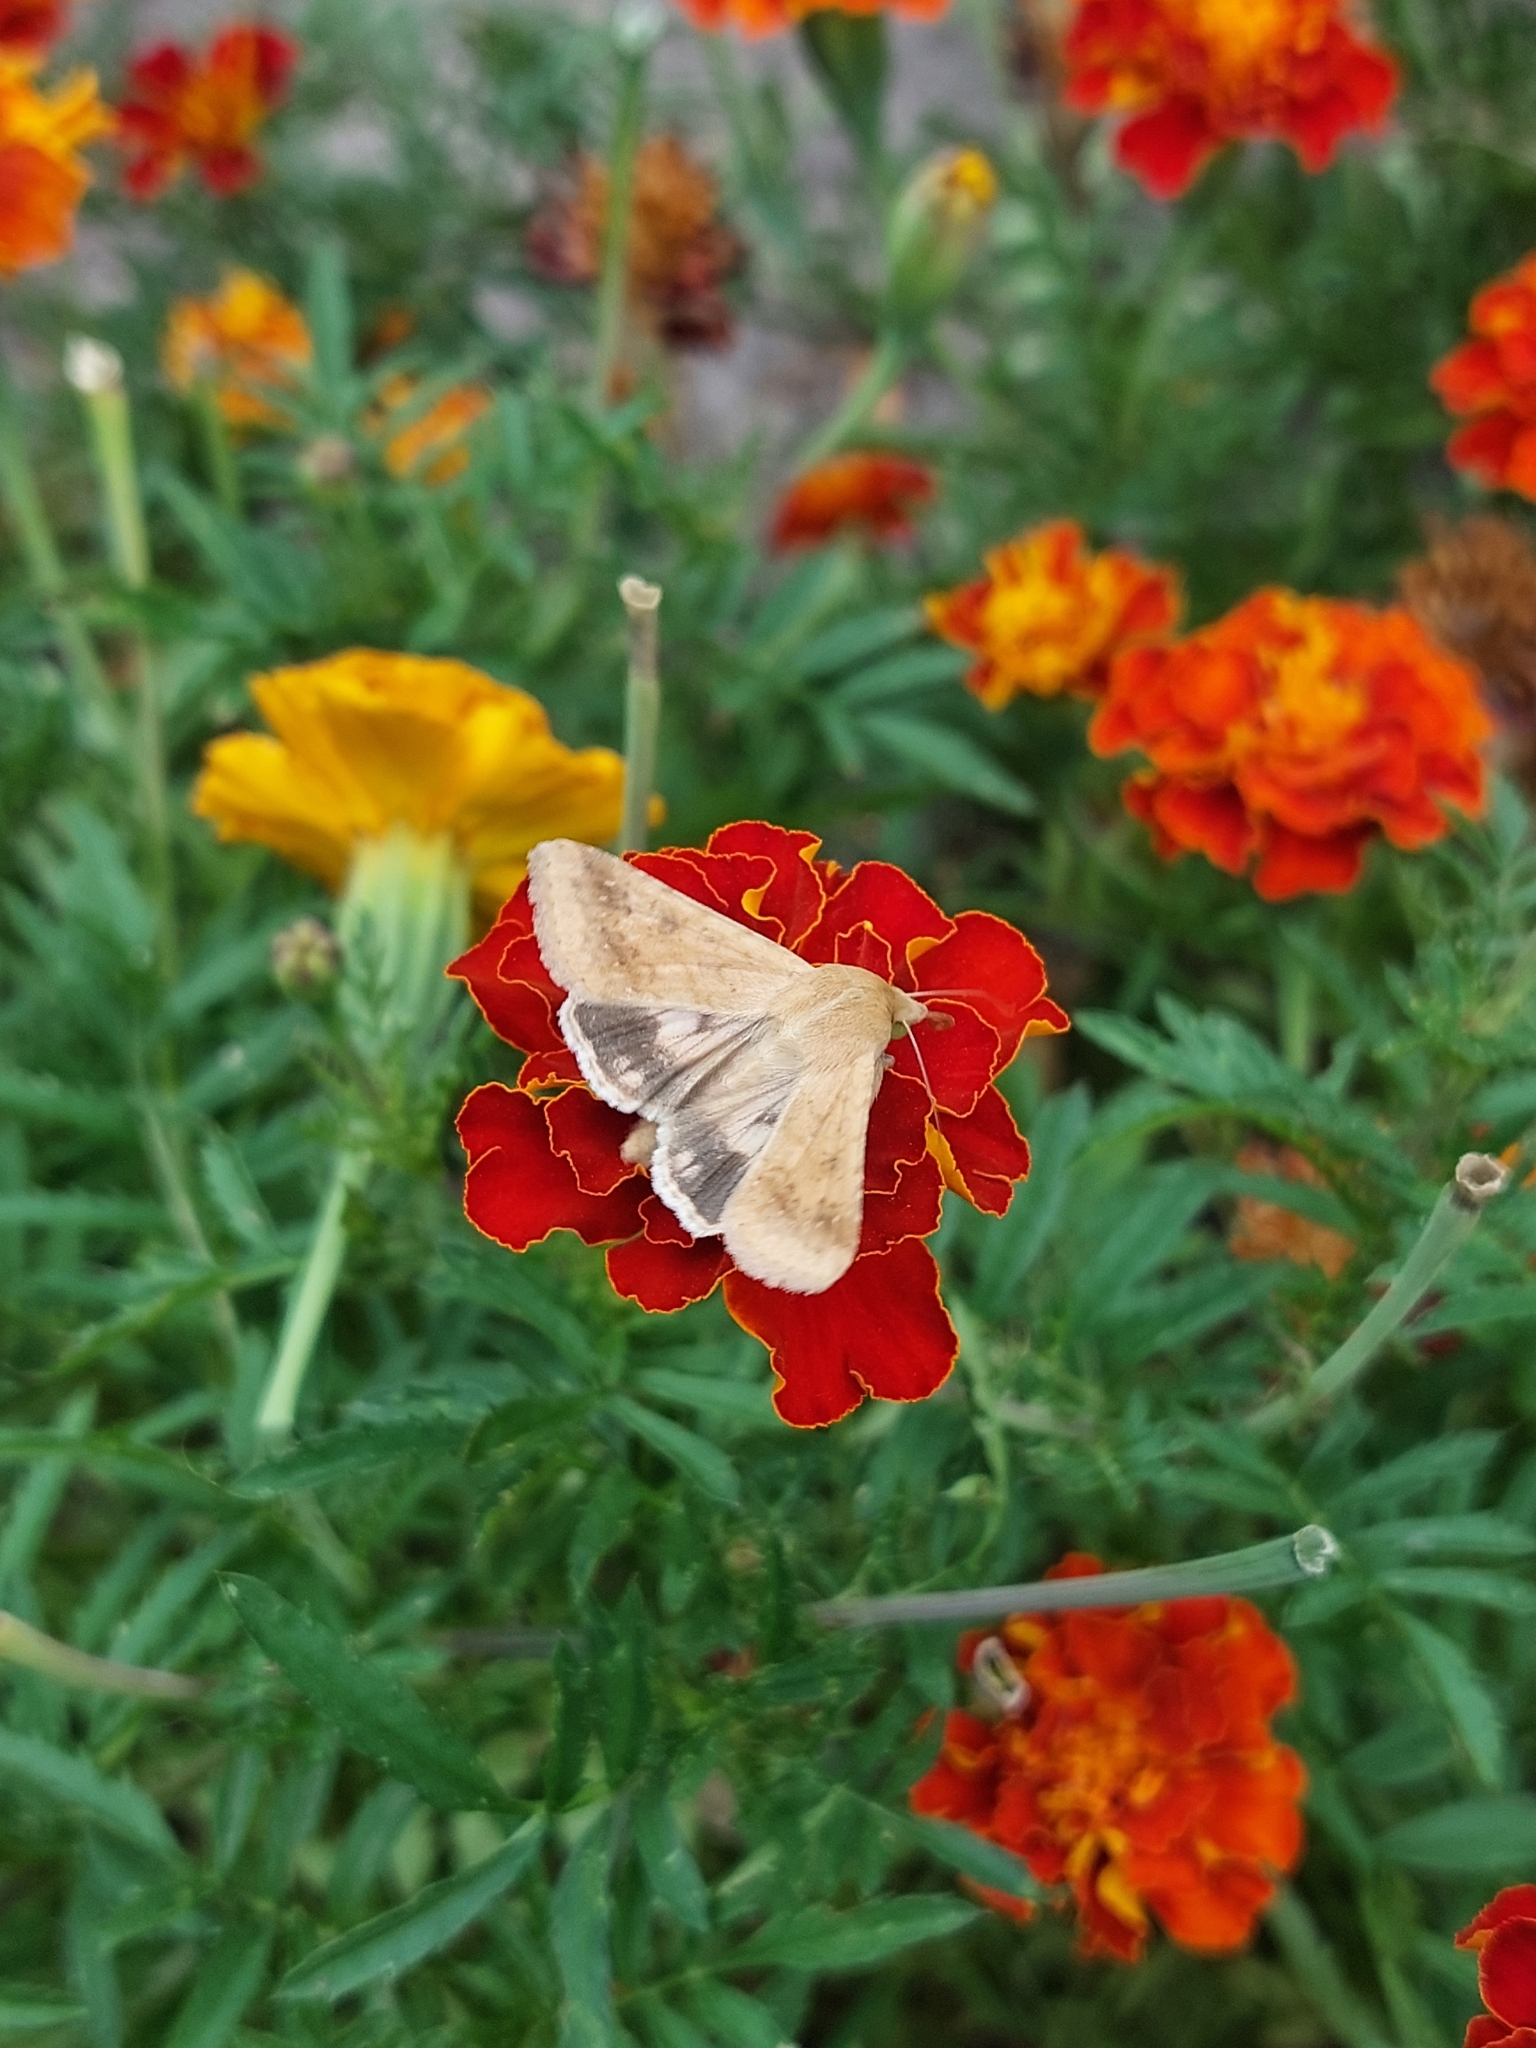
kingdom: Animalia
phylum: Arthropoda
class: Insecta
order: Lepidoptera
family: Noctuidae
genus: Helicoverpa
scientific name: Helicoverpa armigera
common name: Cotton bollworm
